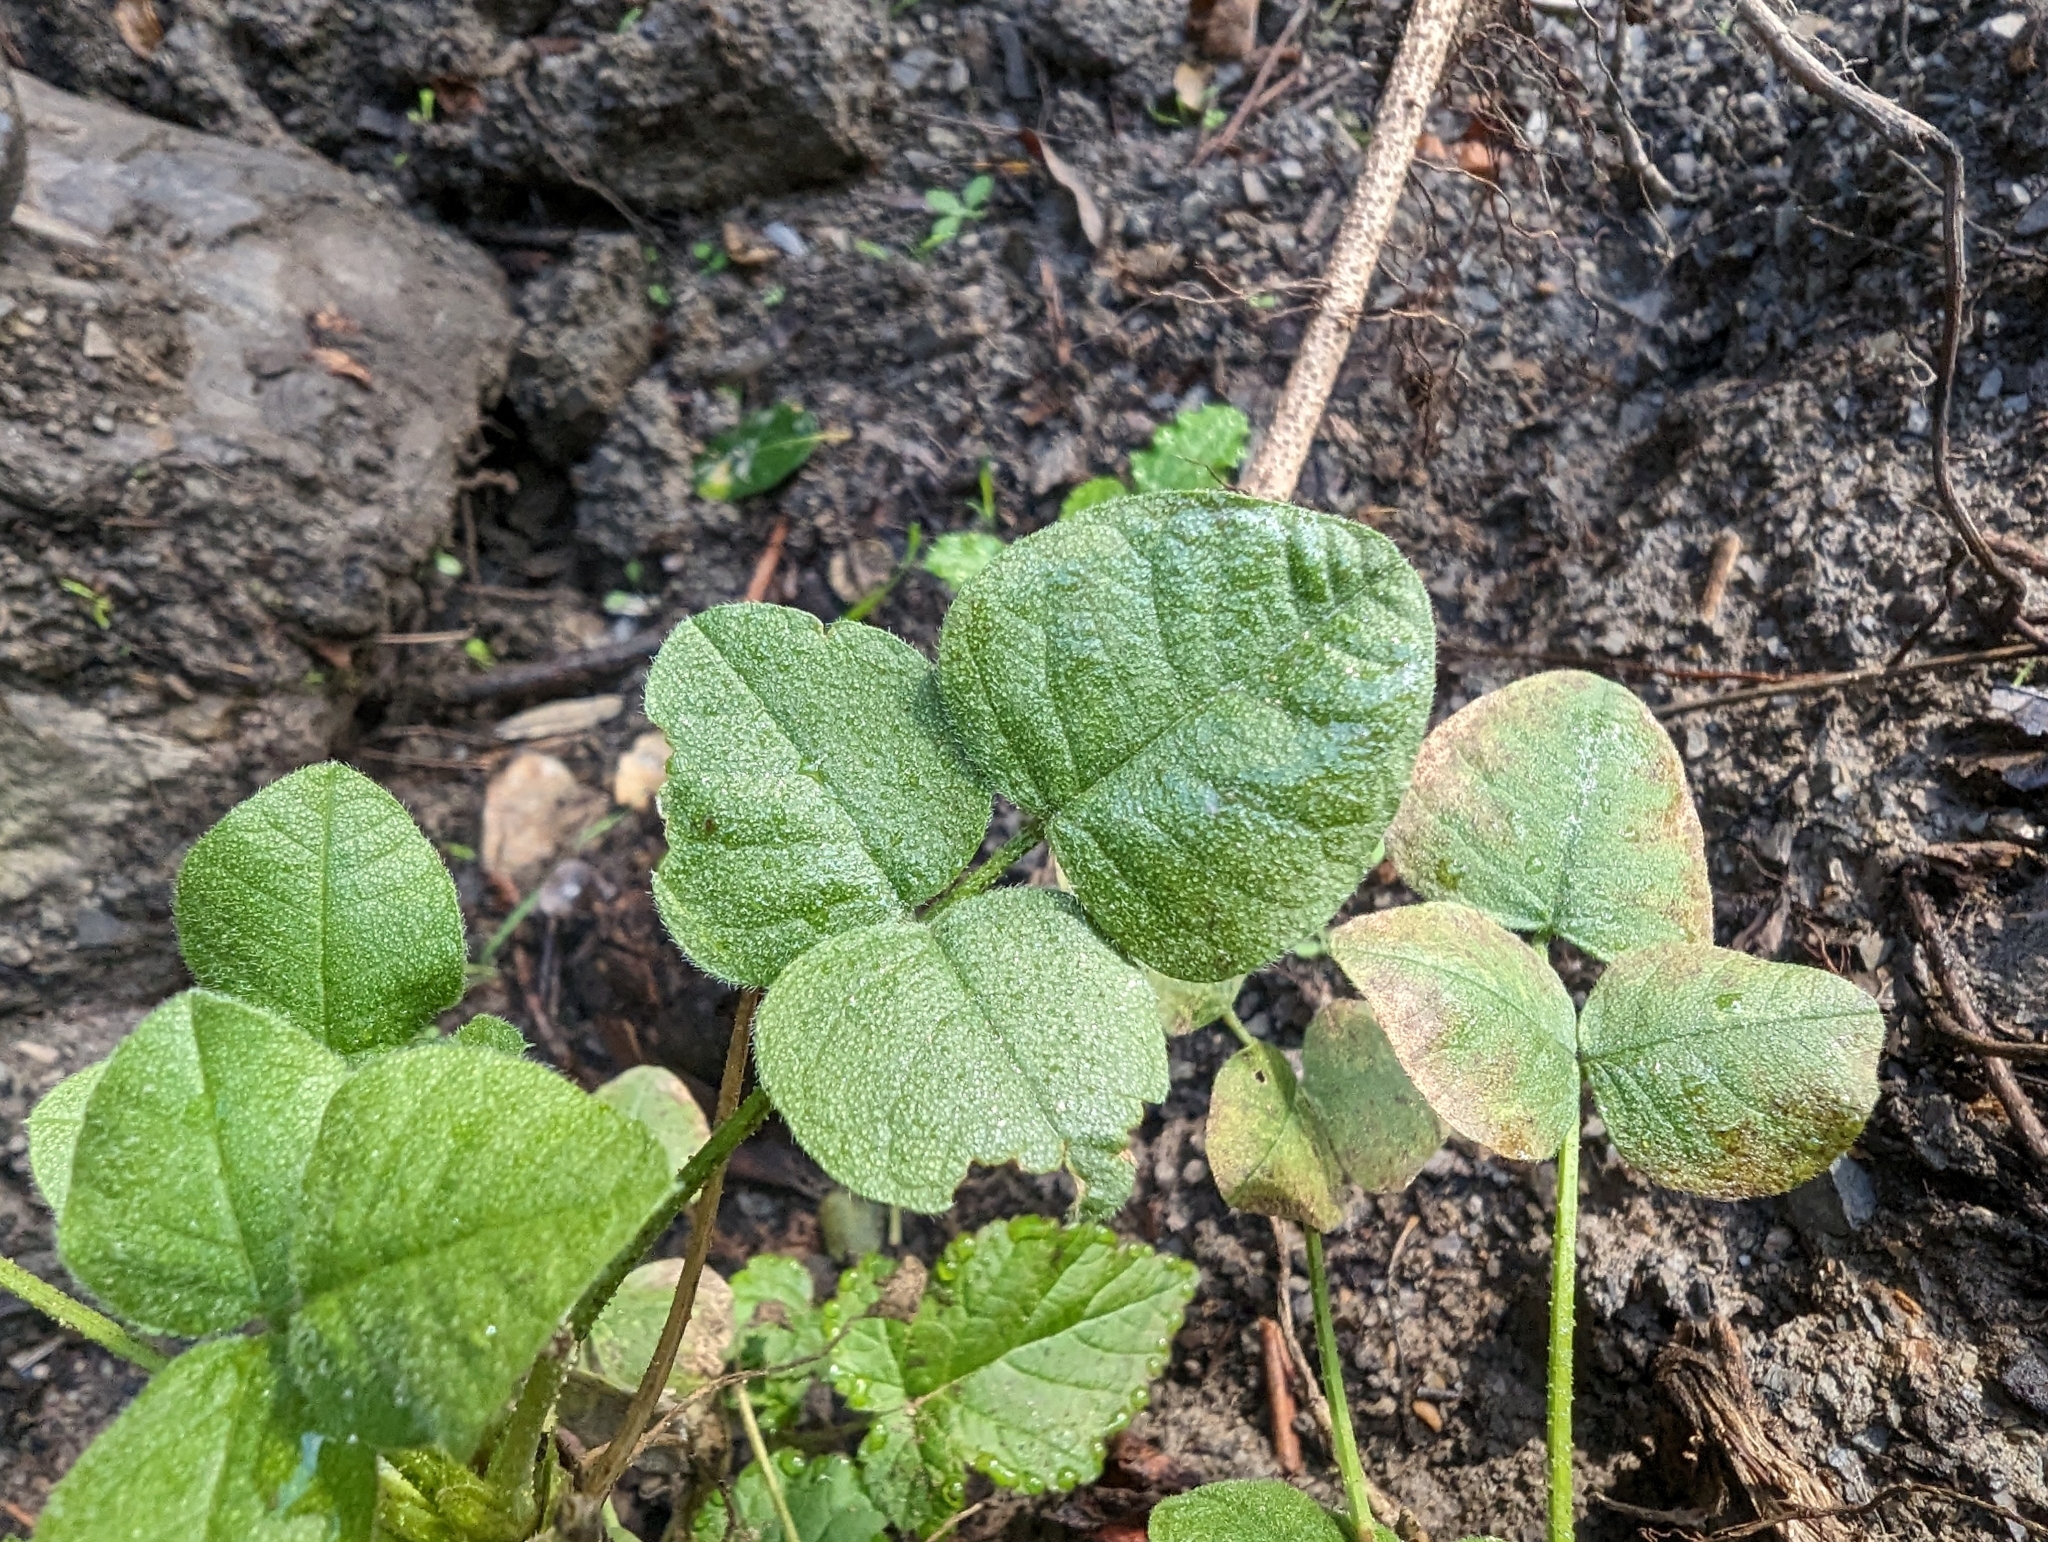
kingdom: Plantae
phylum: Tracheophyta
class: Magnoliopsida
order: Fabales
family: Fabaceae
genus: Hoita
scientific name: Hoita macrostachya
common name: Leatherroot
